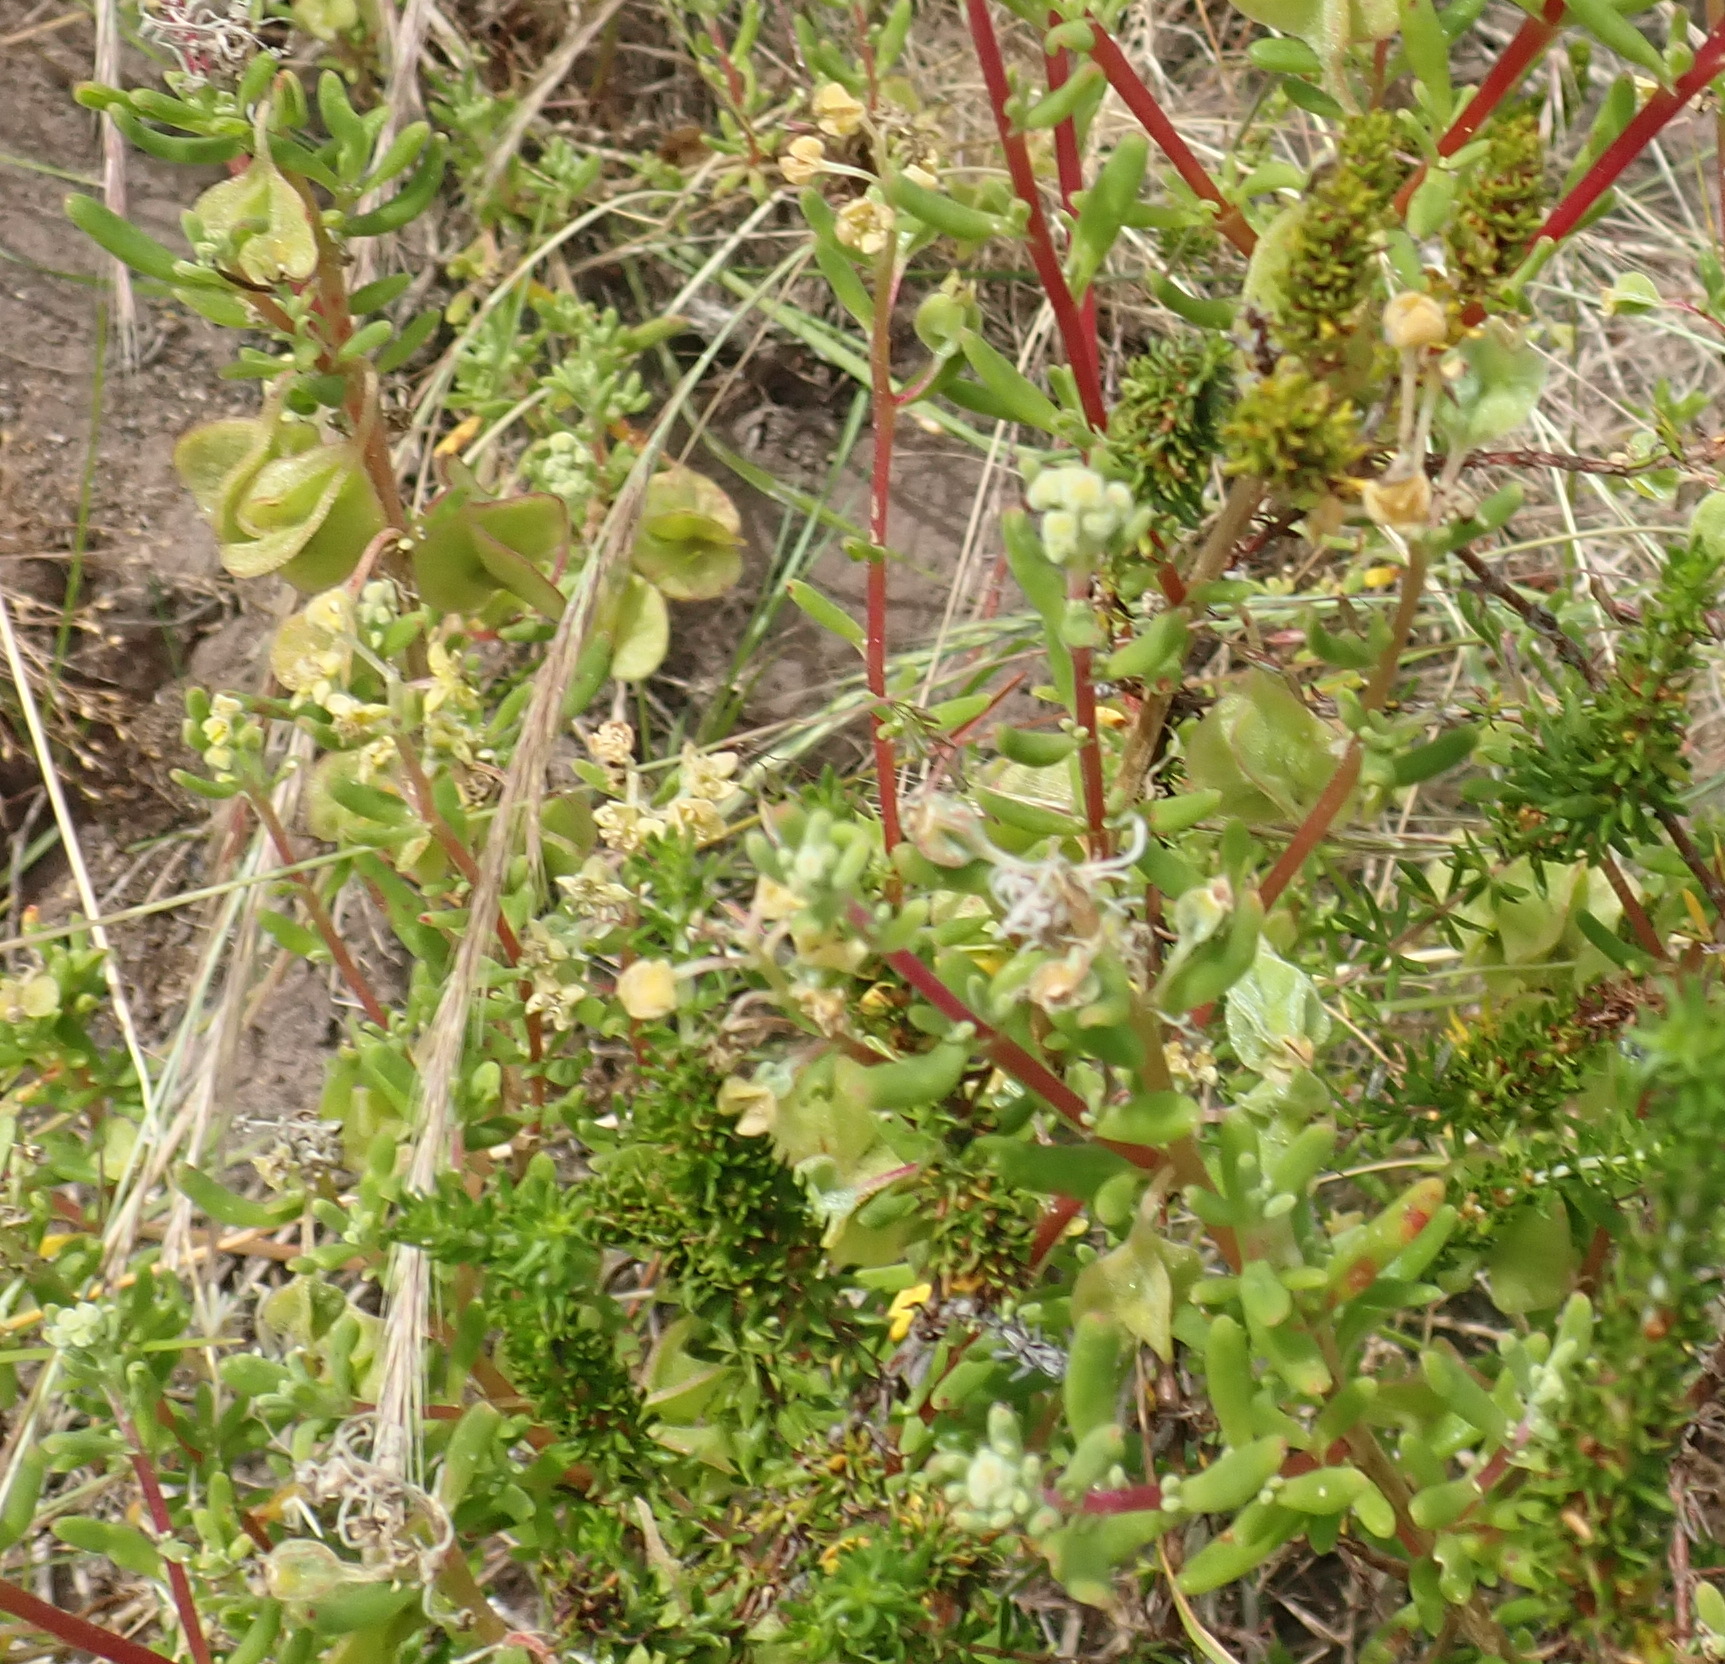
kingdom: Plantae
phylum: Tracheophyta
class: Magnoliopsida
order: Caryophyllales
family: Aizoaceae
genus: Tetragonia
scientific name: Tetragonia fruticosa
